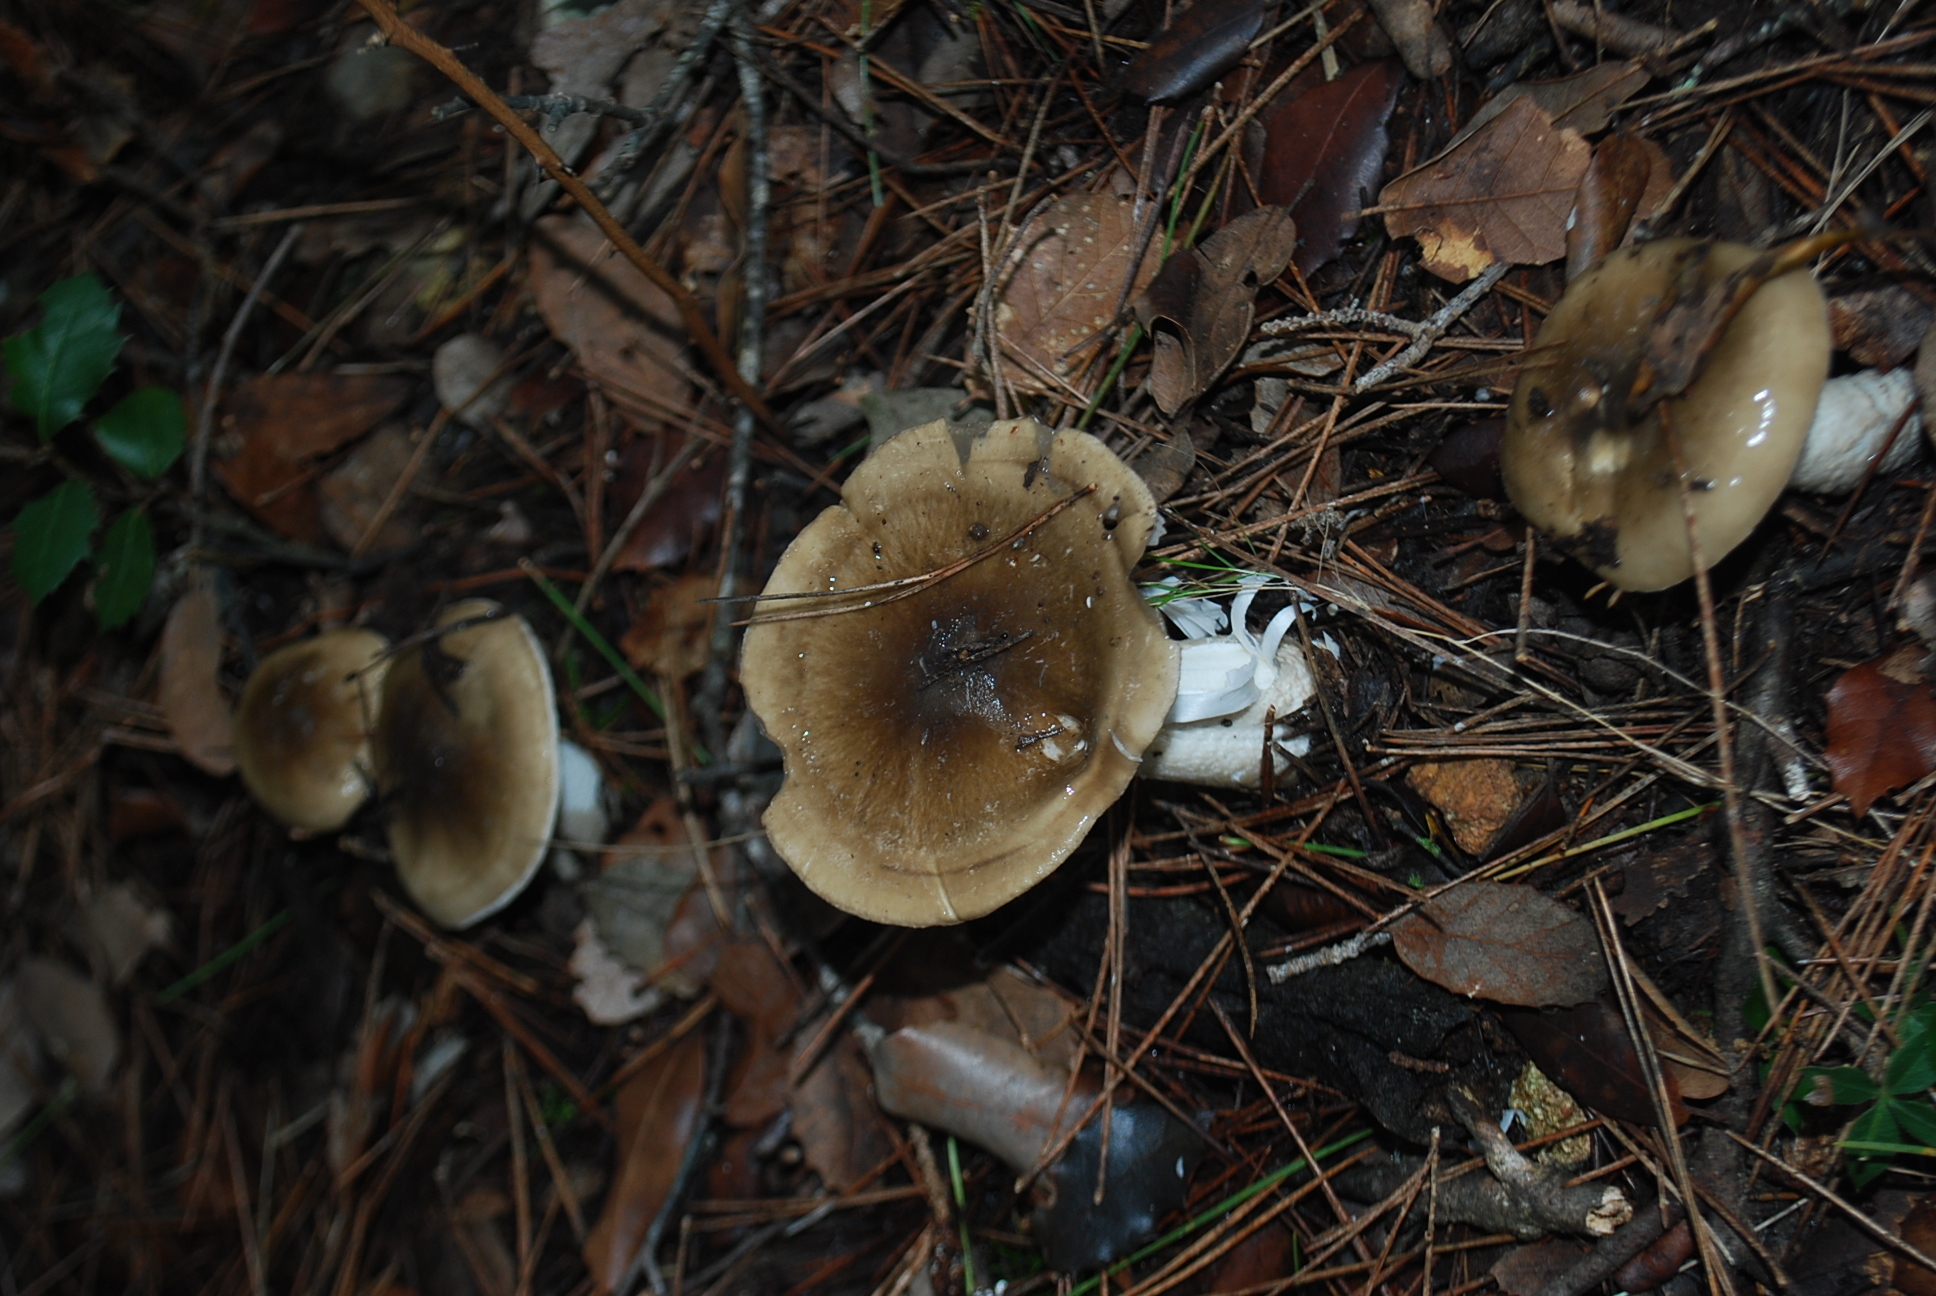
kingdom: Fungi
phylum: Basidiomycota
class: Agaricomycetes
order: Agaricales
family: Hygrophoraceae
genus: Hygrophorus
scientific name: Hygrophorus limacinus
